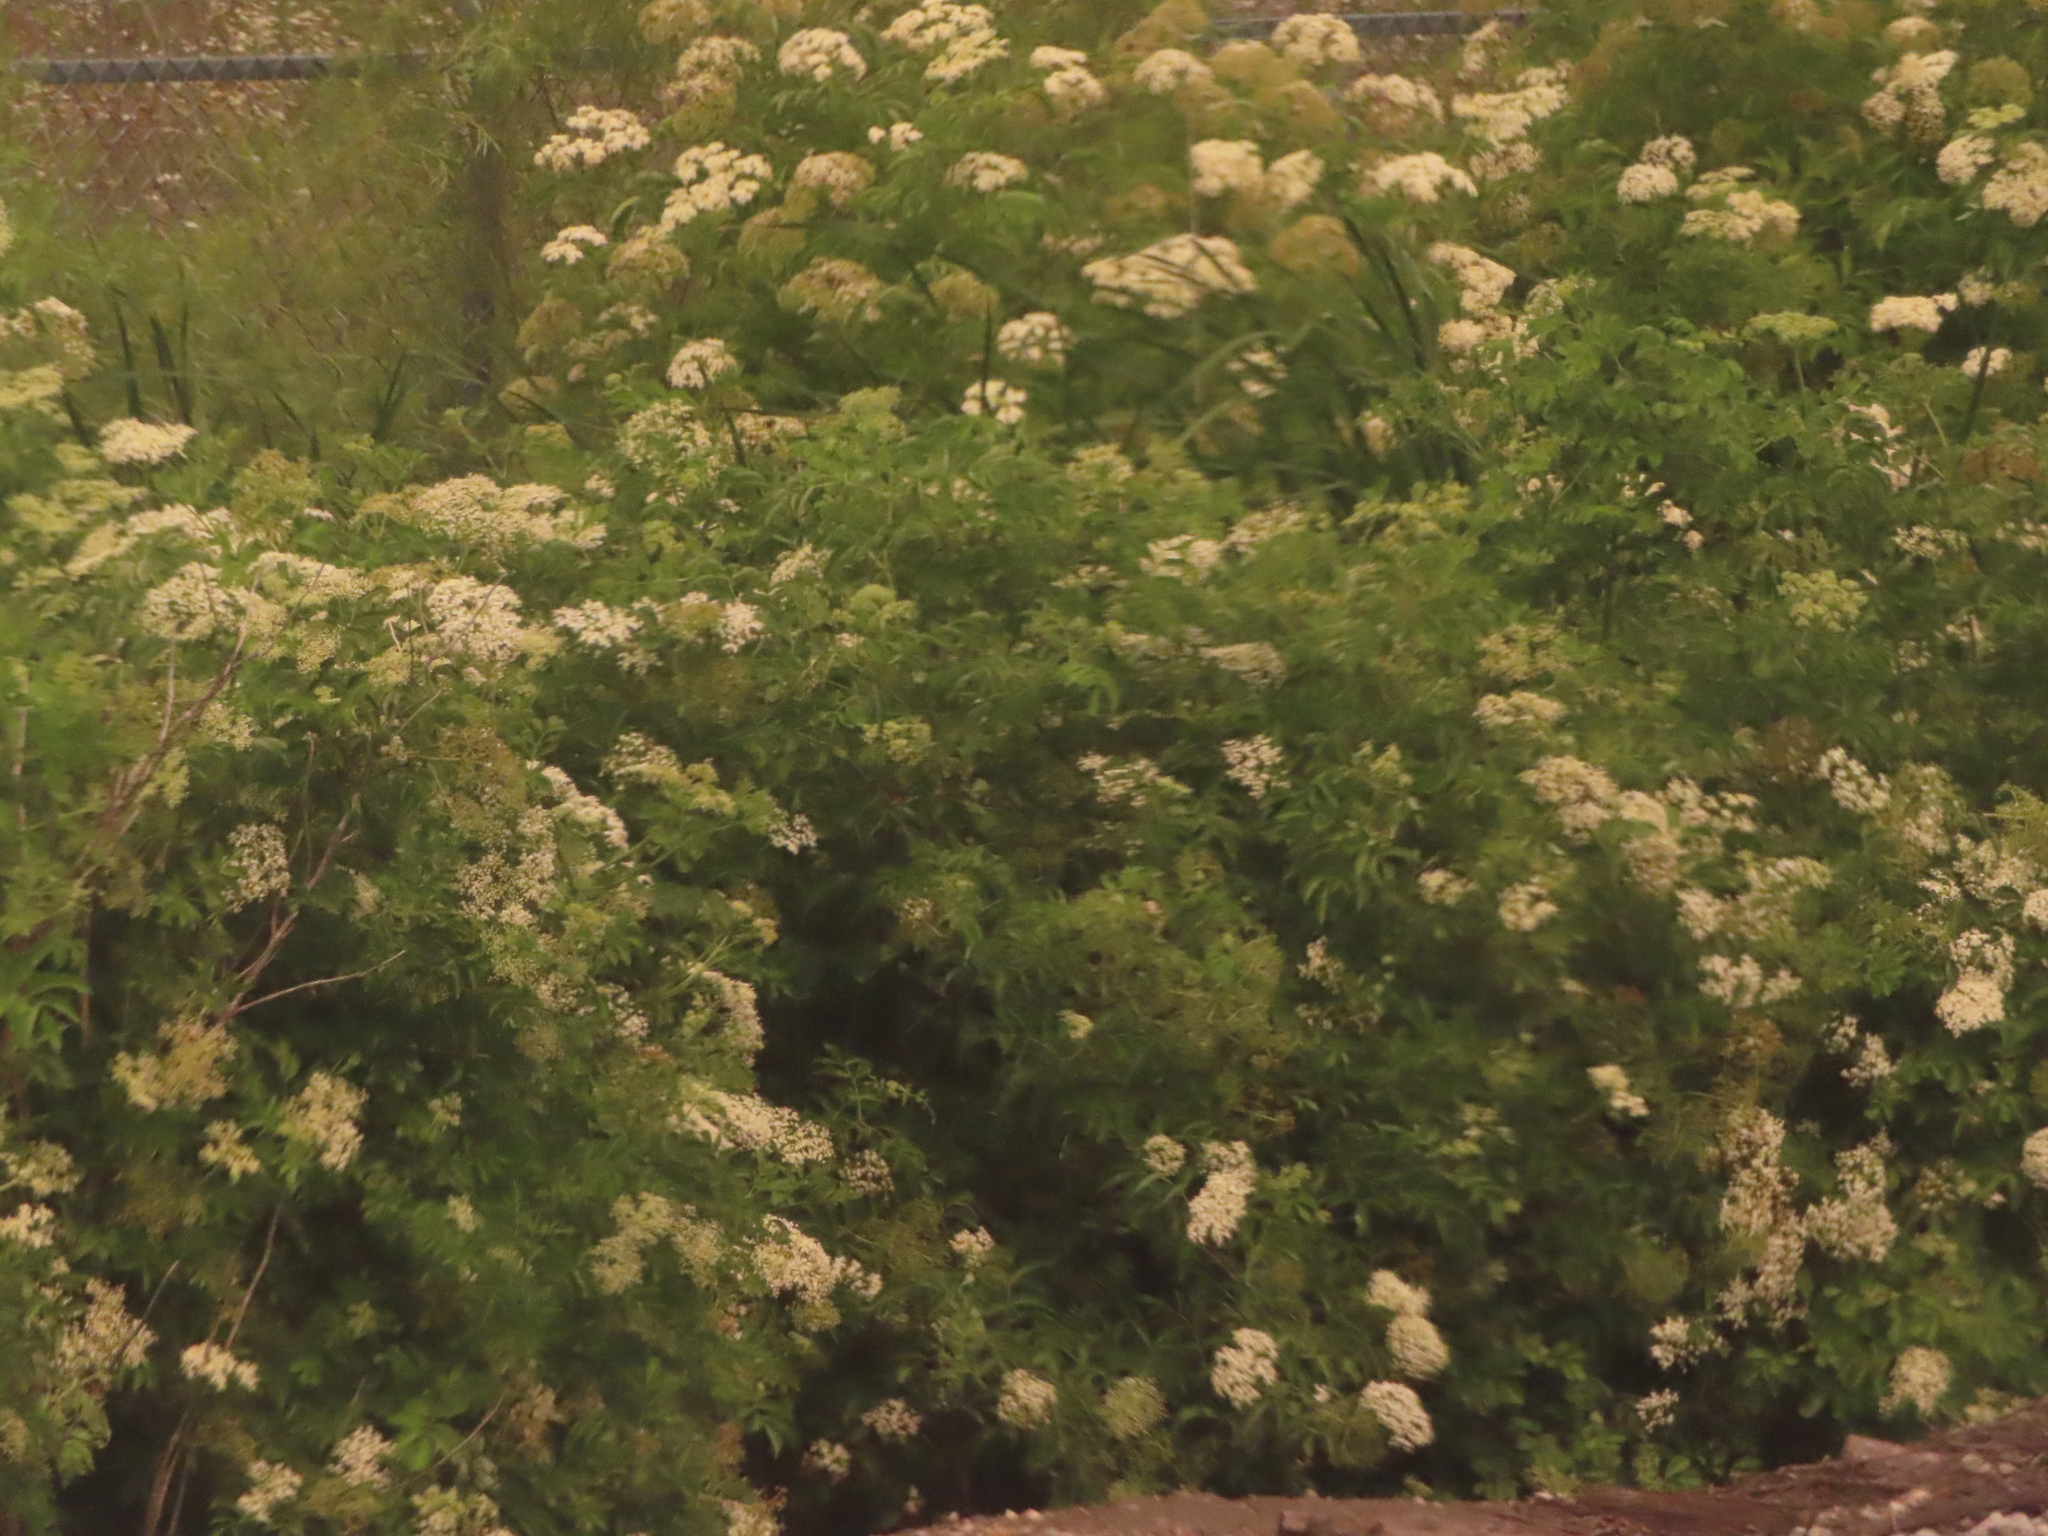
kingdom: Plantae
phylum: Tracheophyta
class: Magnoliopsida
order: Dipsacales
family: Viburnaceae
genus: Sambucus
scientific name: Sambucus canadensis
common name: American elder
